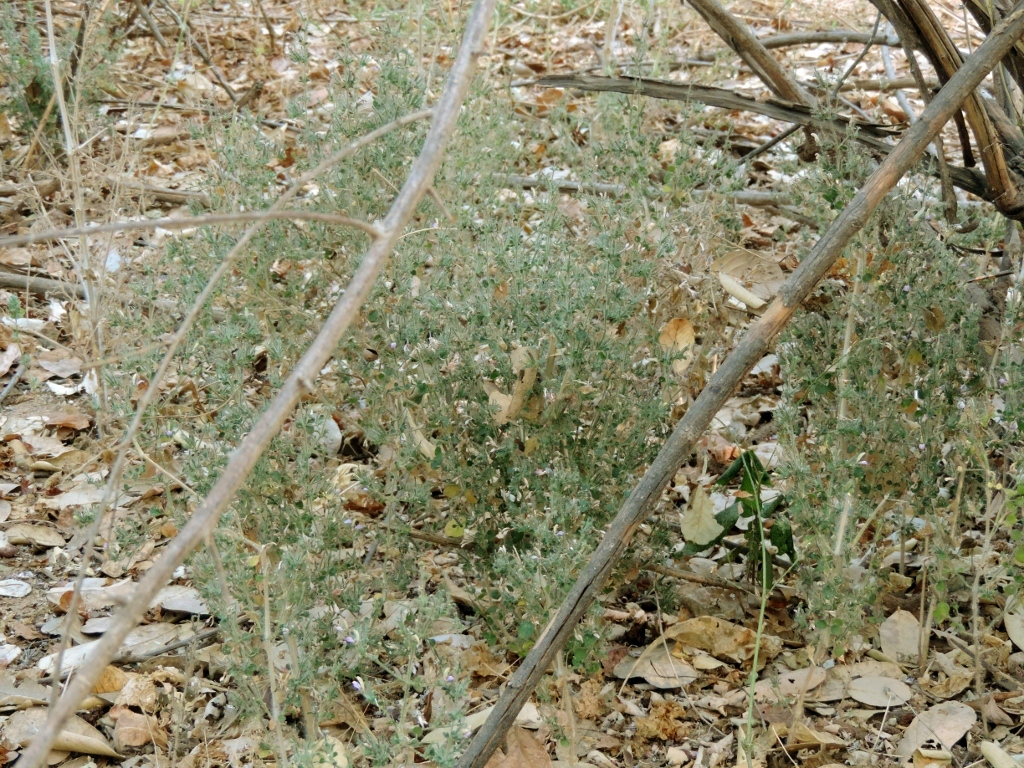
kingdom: Plantae
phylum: Tracheophyta
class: Magnoliopsida
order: Lamiales
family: Acanthaceae
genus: Brillantaisia
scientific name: Brillantaisia pubescens
